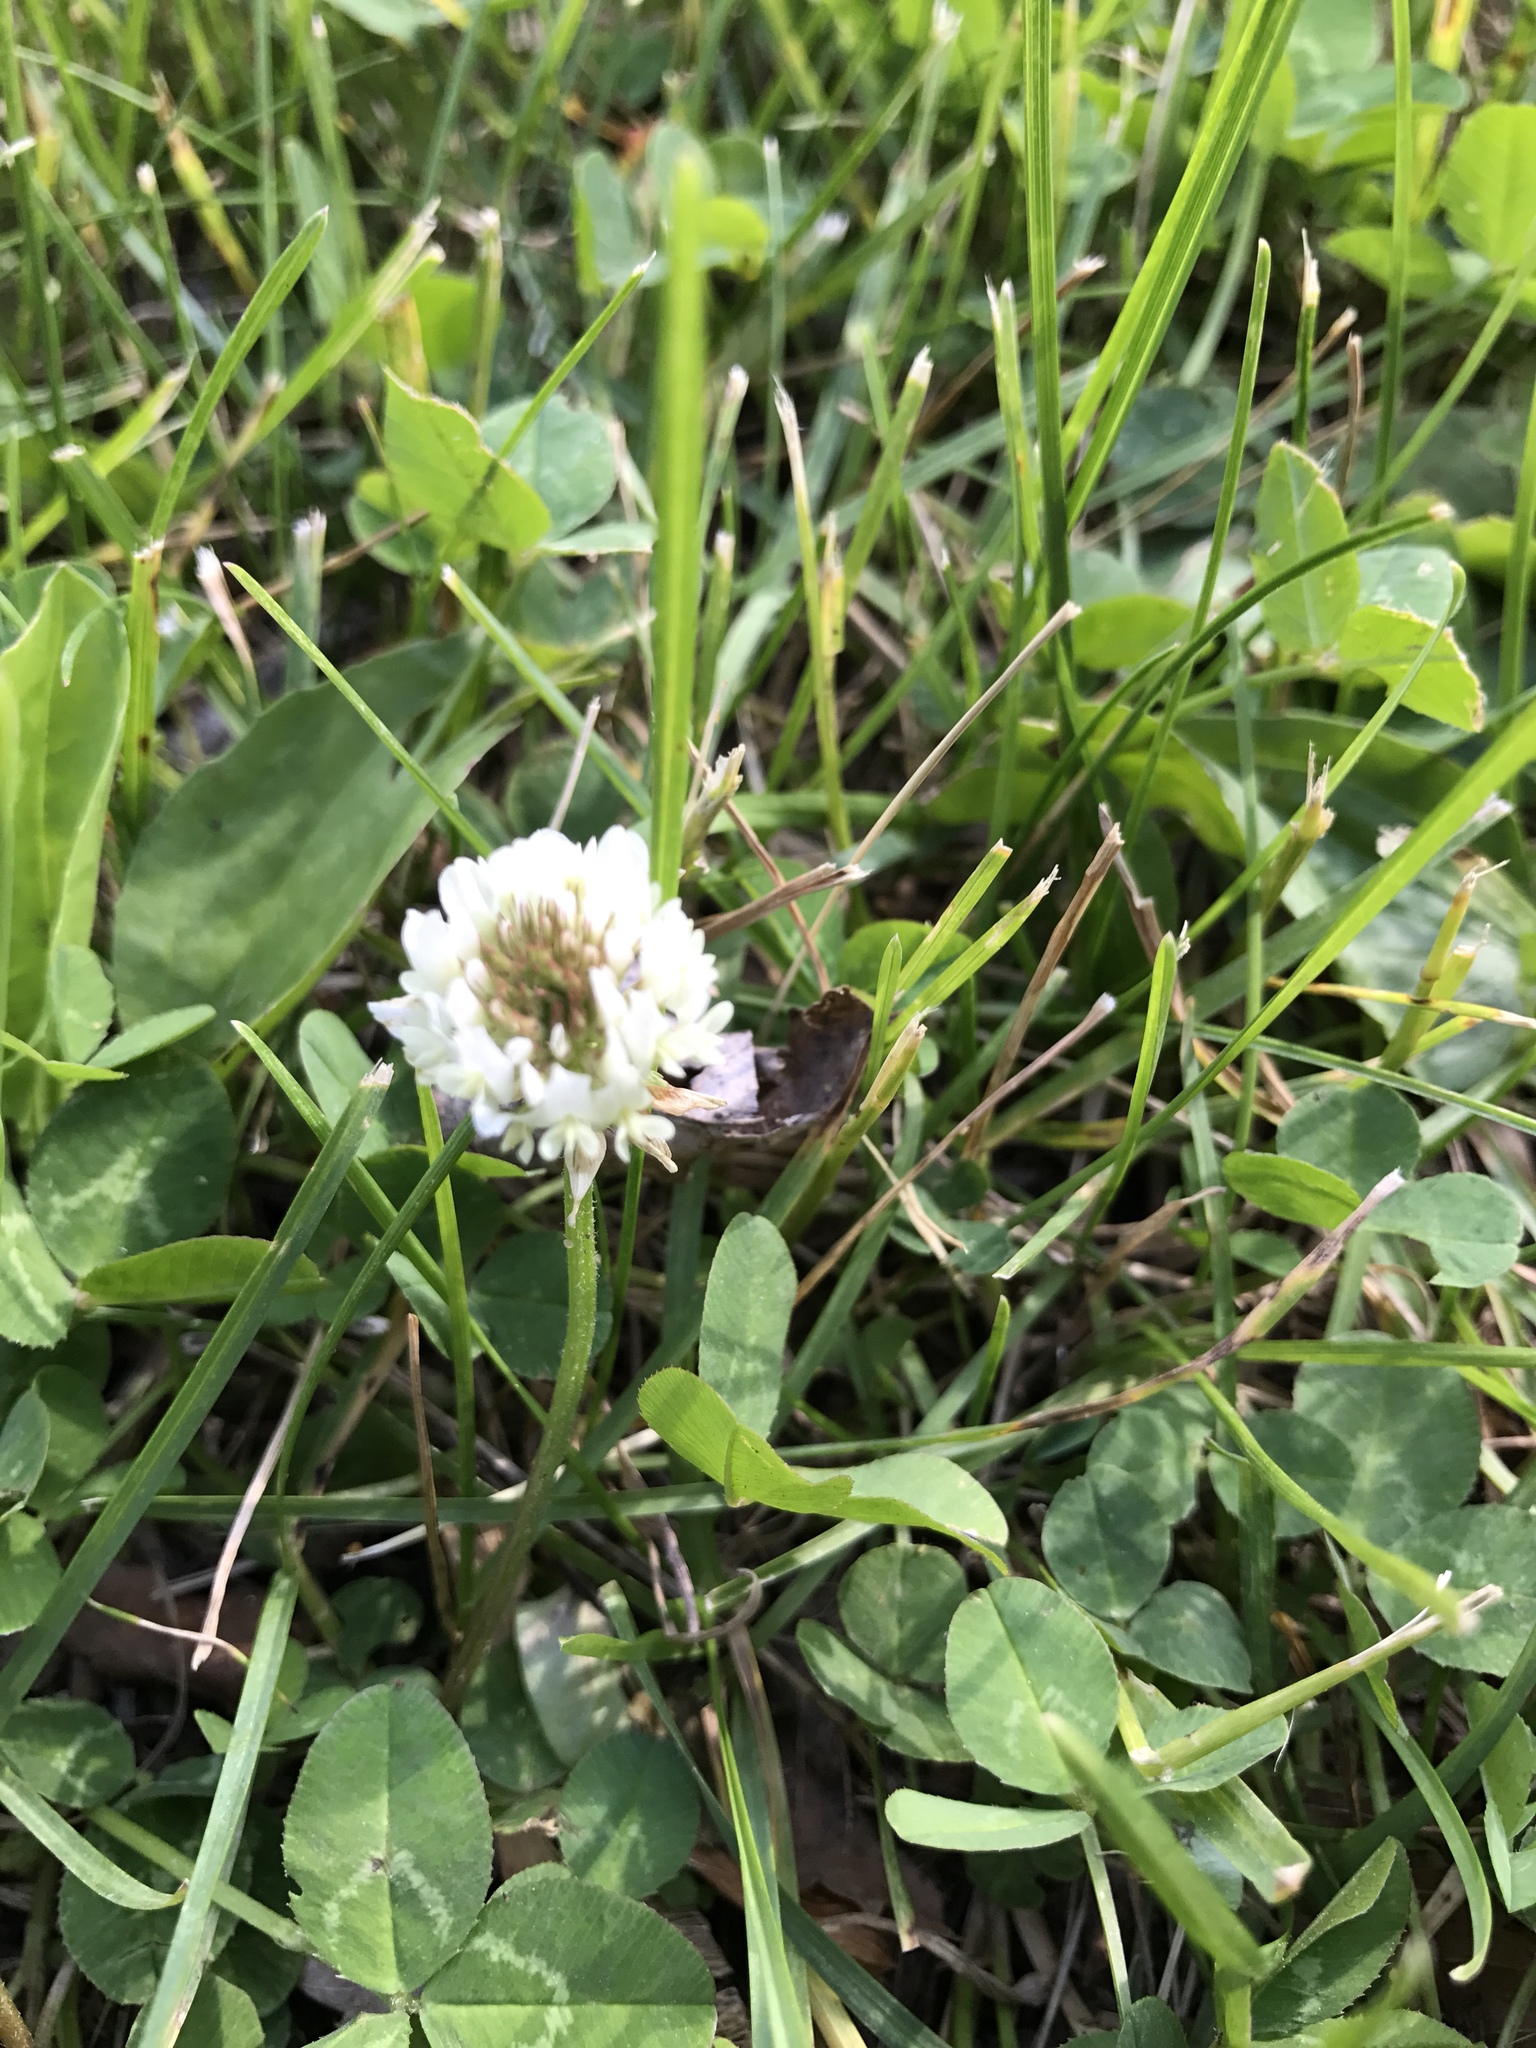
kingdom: Plantae
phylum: Tracheophyta
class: Magnoliopsida
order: Fabales
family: Fabaceae
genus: Trifolium
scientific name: Trifolium repens
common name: White clover
